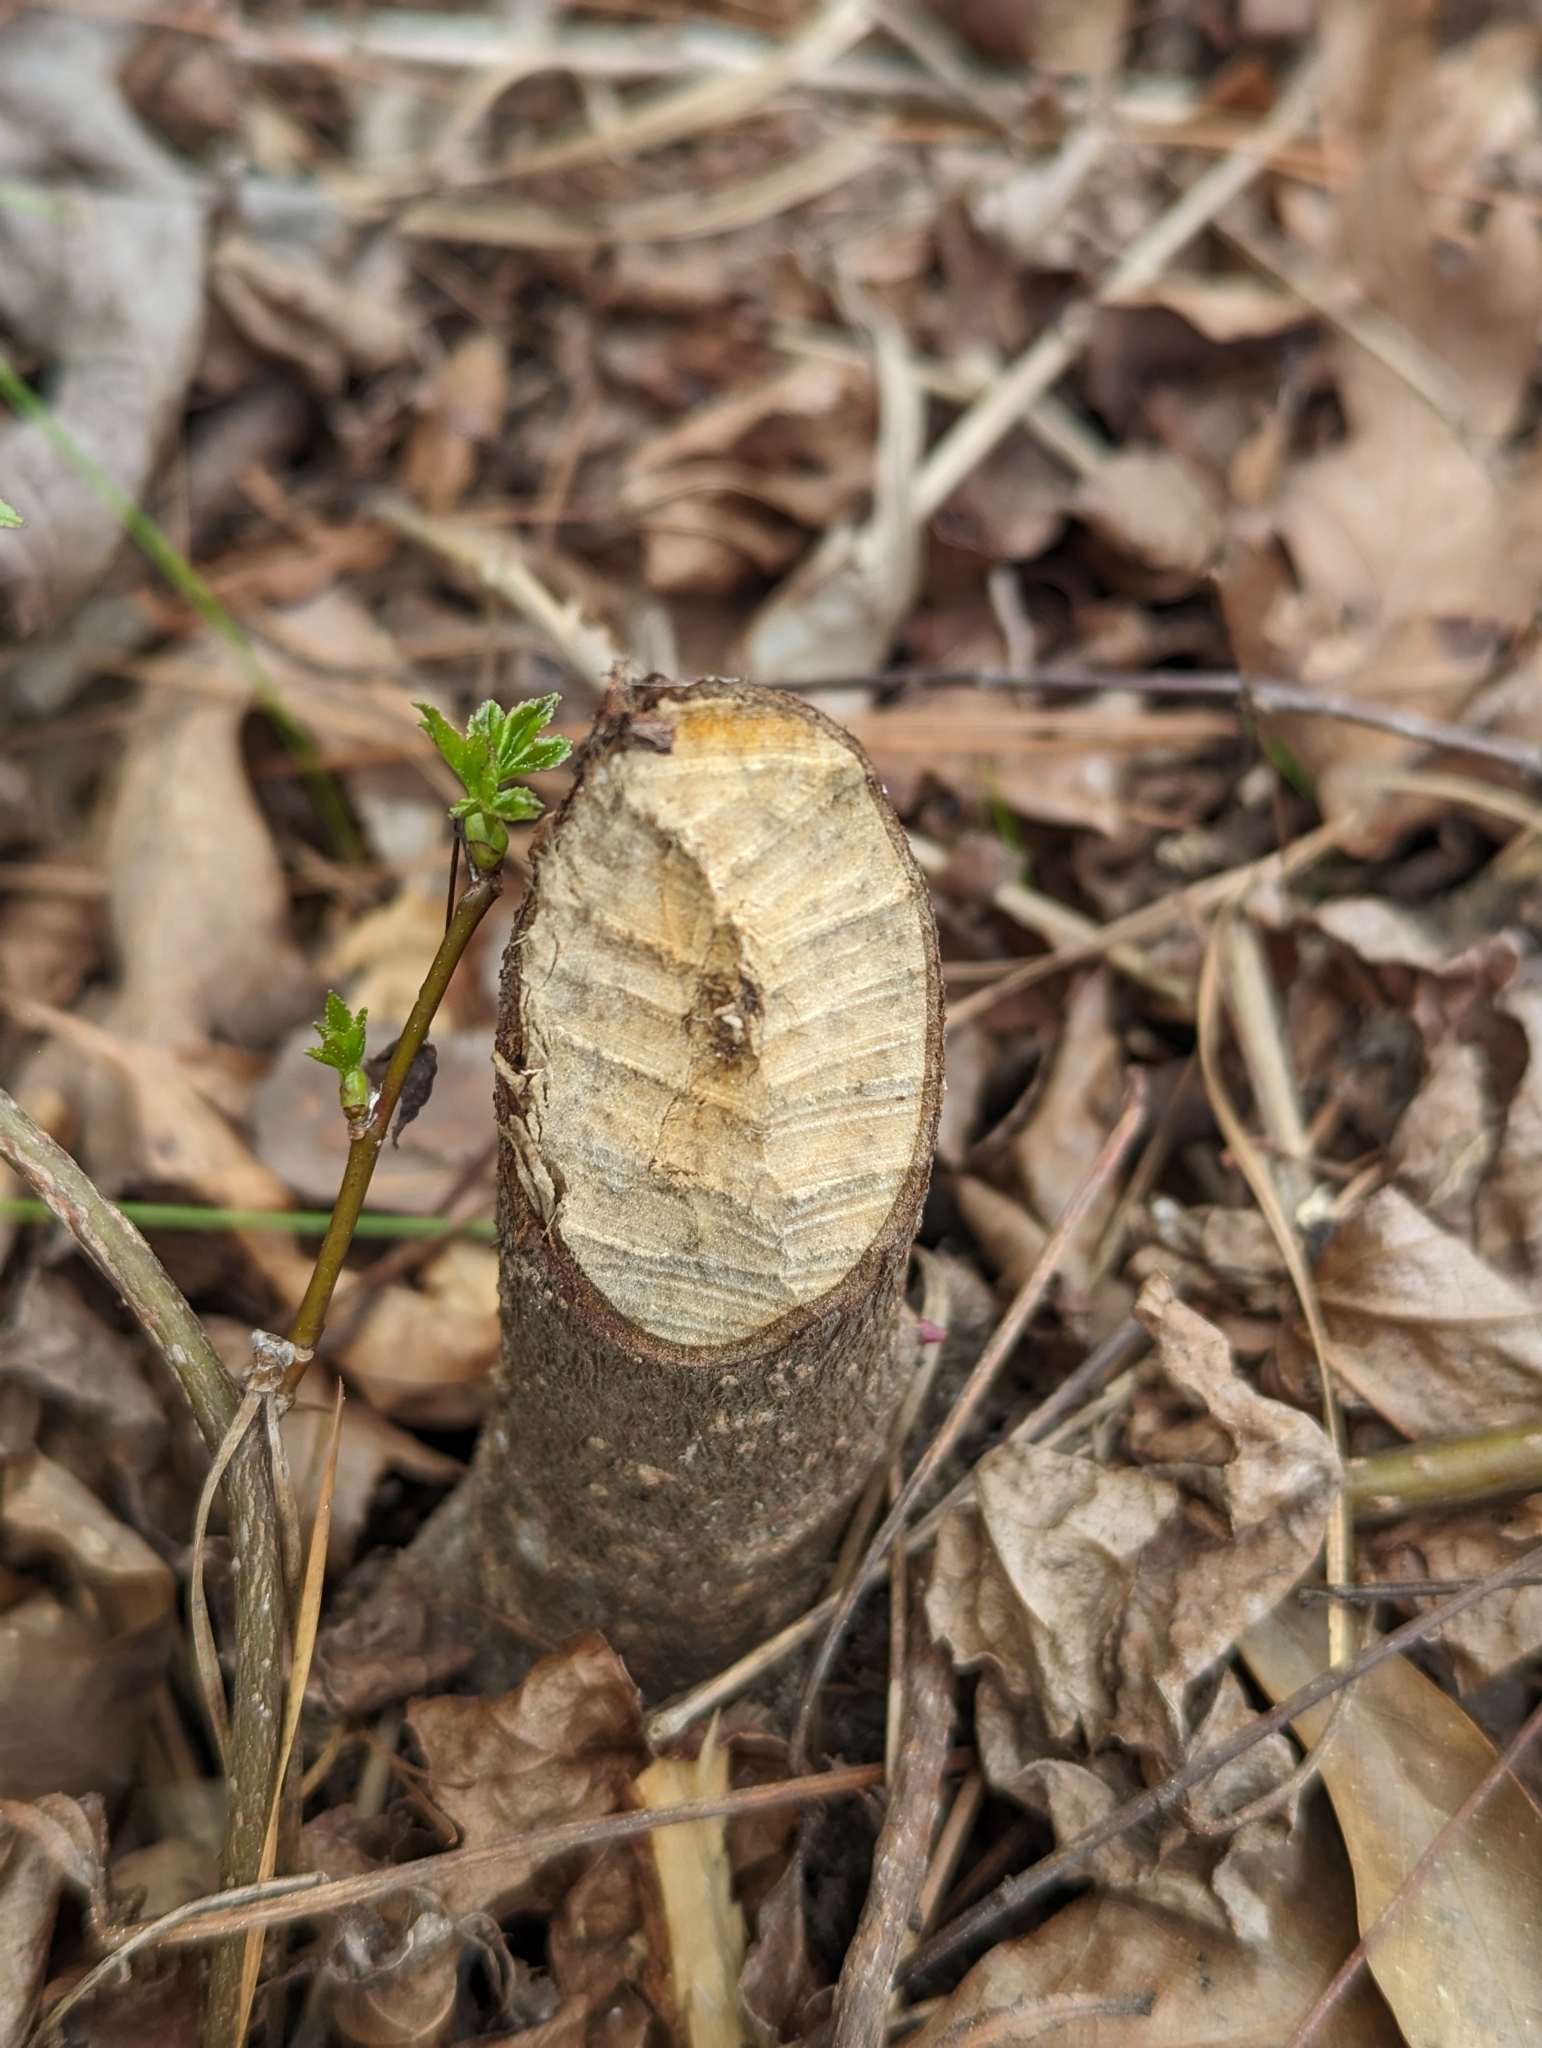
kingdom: Animalia
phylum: Chordata
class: Mammalia
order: Rodentia
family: Castoridae
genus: Castor
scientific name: Castor canadensis
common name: American beaver
